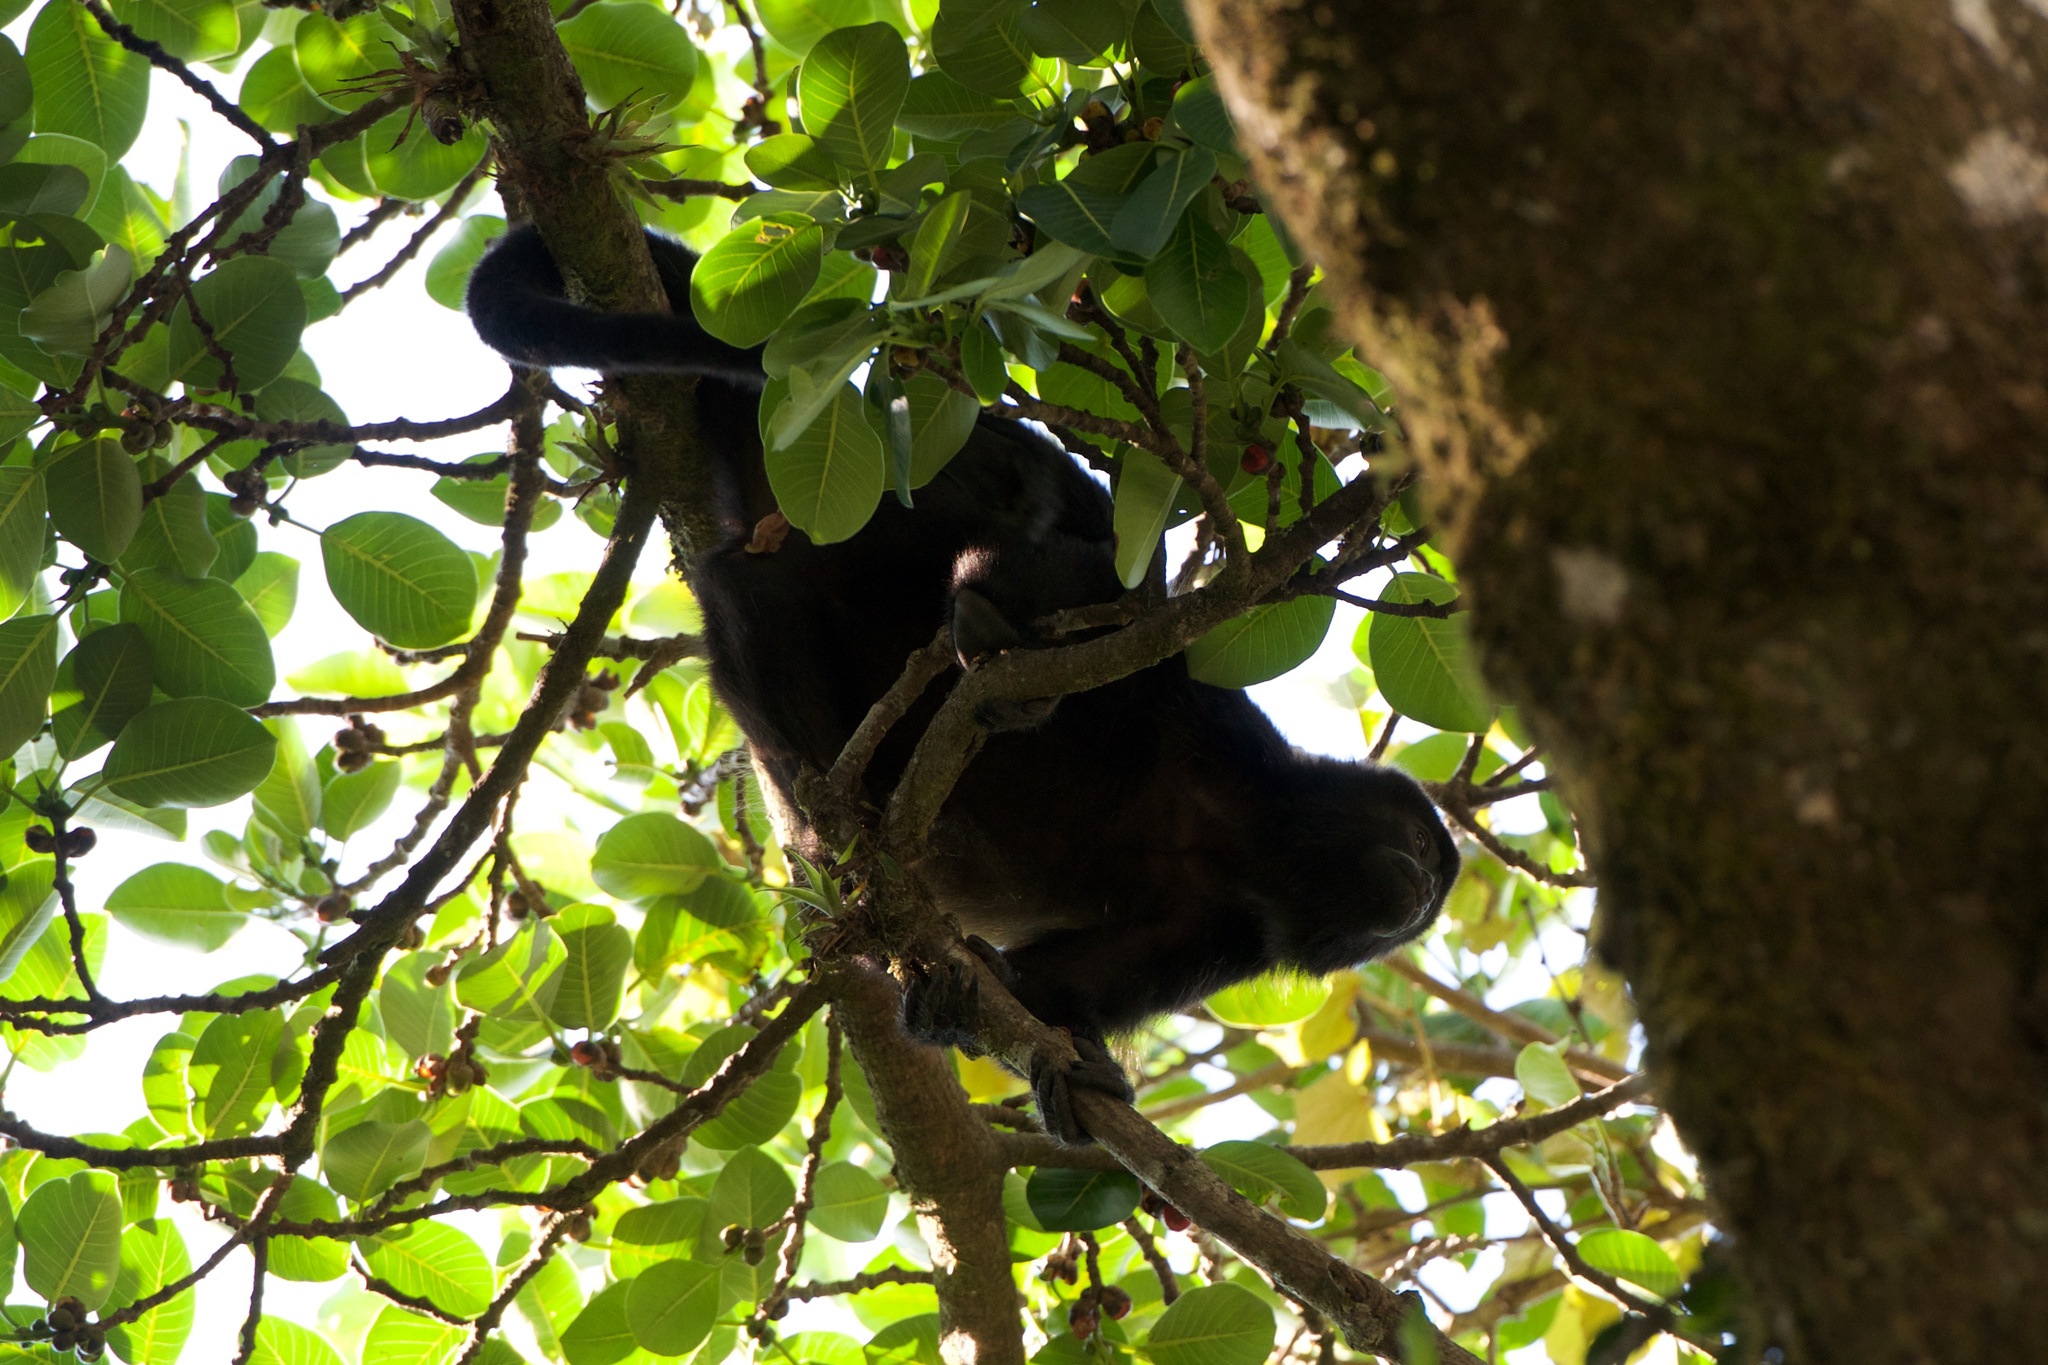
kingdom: Animalia
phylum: Chordata
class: Mammalia
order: Primates
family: Atelidae
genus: Alouatta
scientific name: Alouatta palliata
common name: Mantled howler
